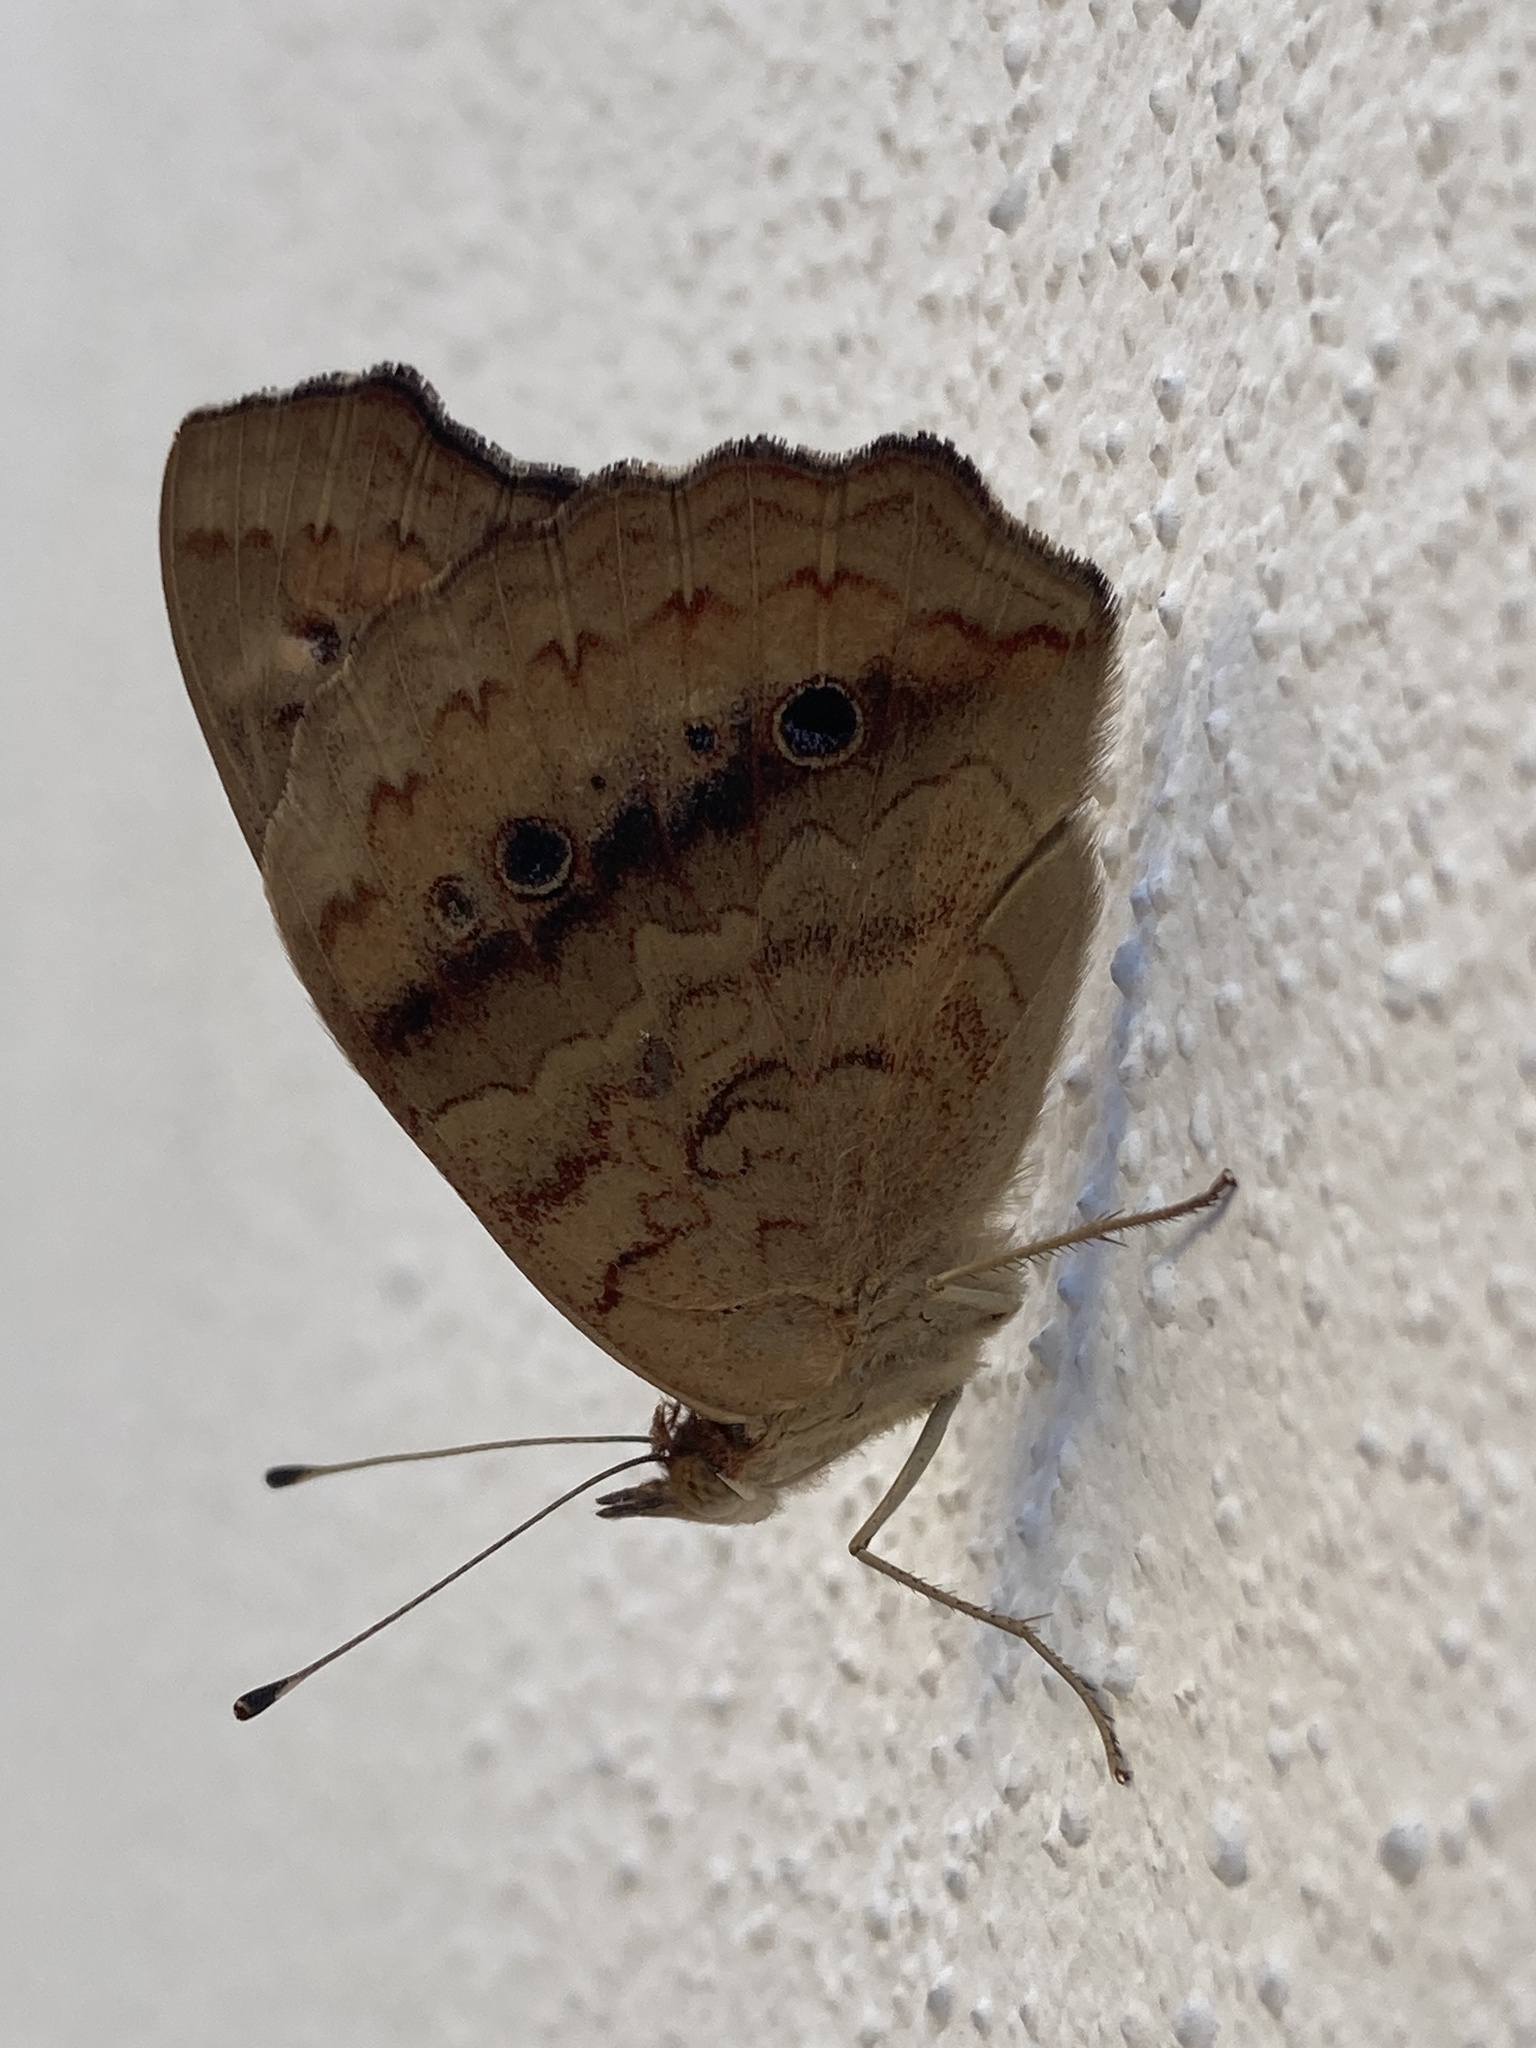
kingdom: Animalia
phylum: Arthropoda
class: Insecta
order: Lepidoptera
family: Nymphalidae
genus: Junonia
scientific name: Junonia lavinia
